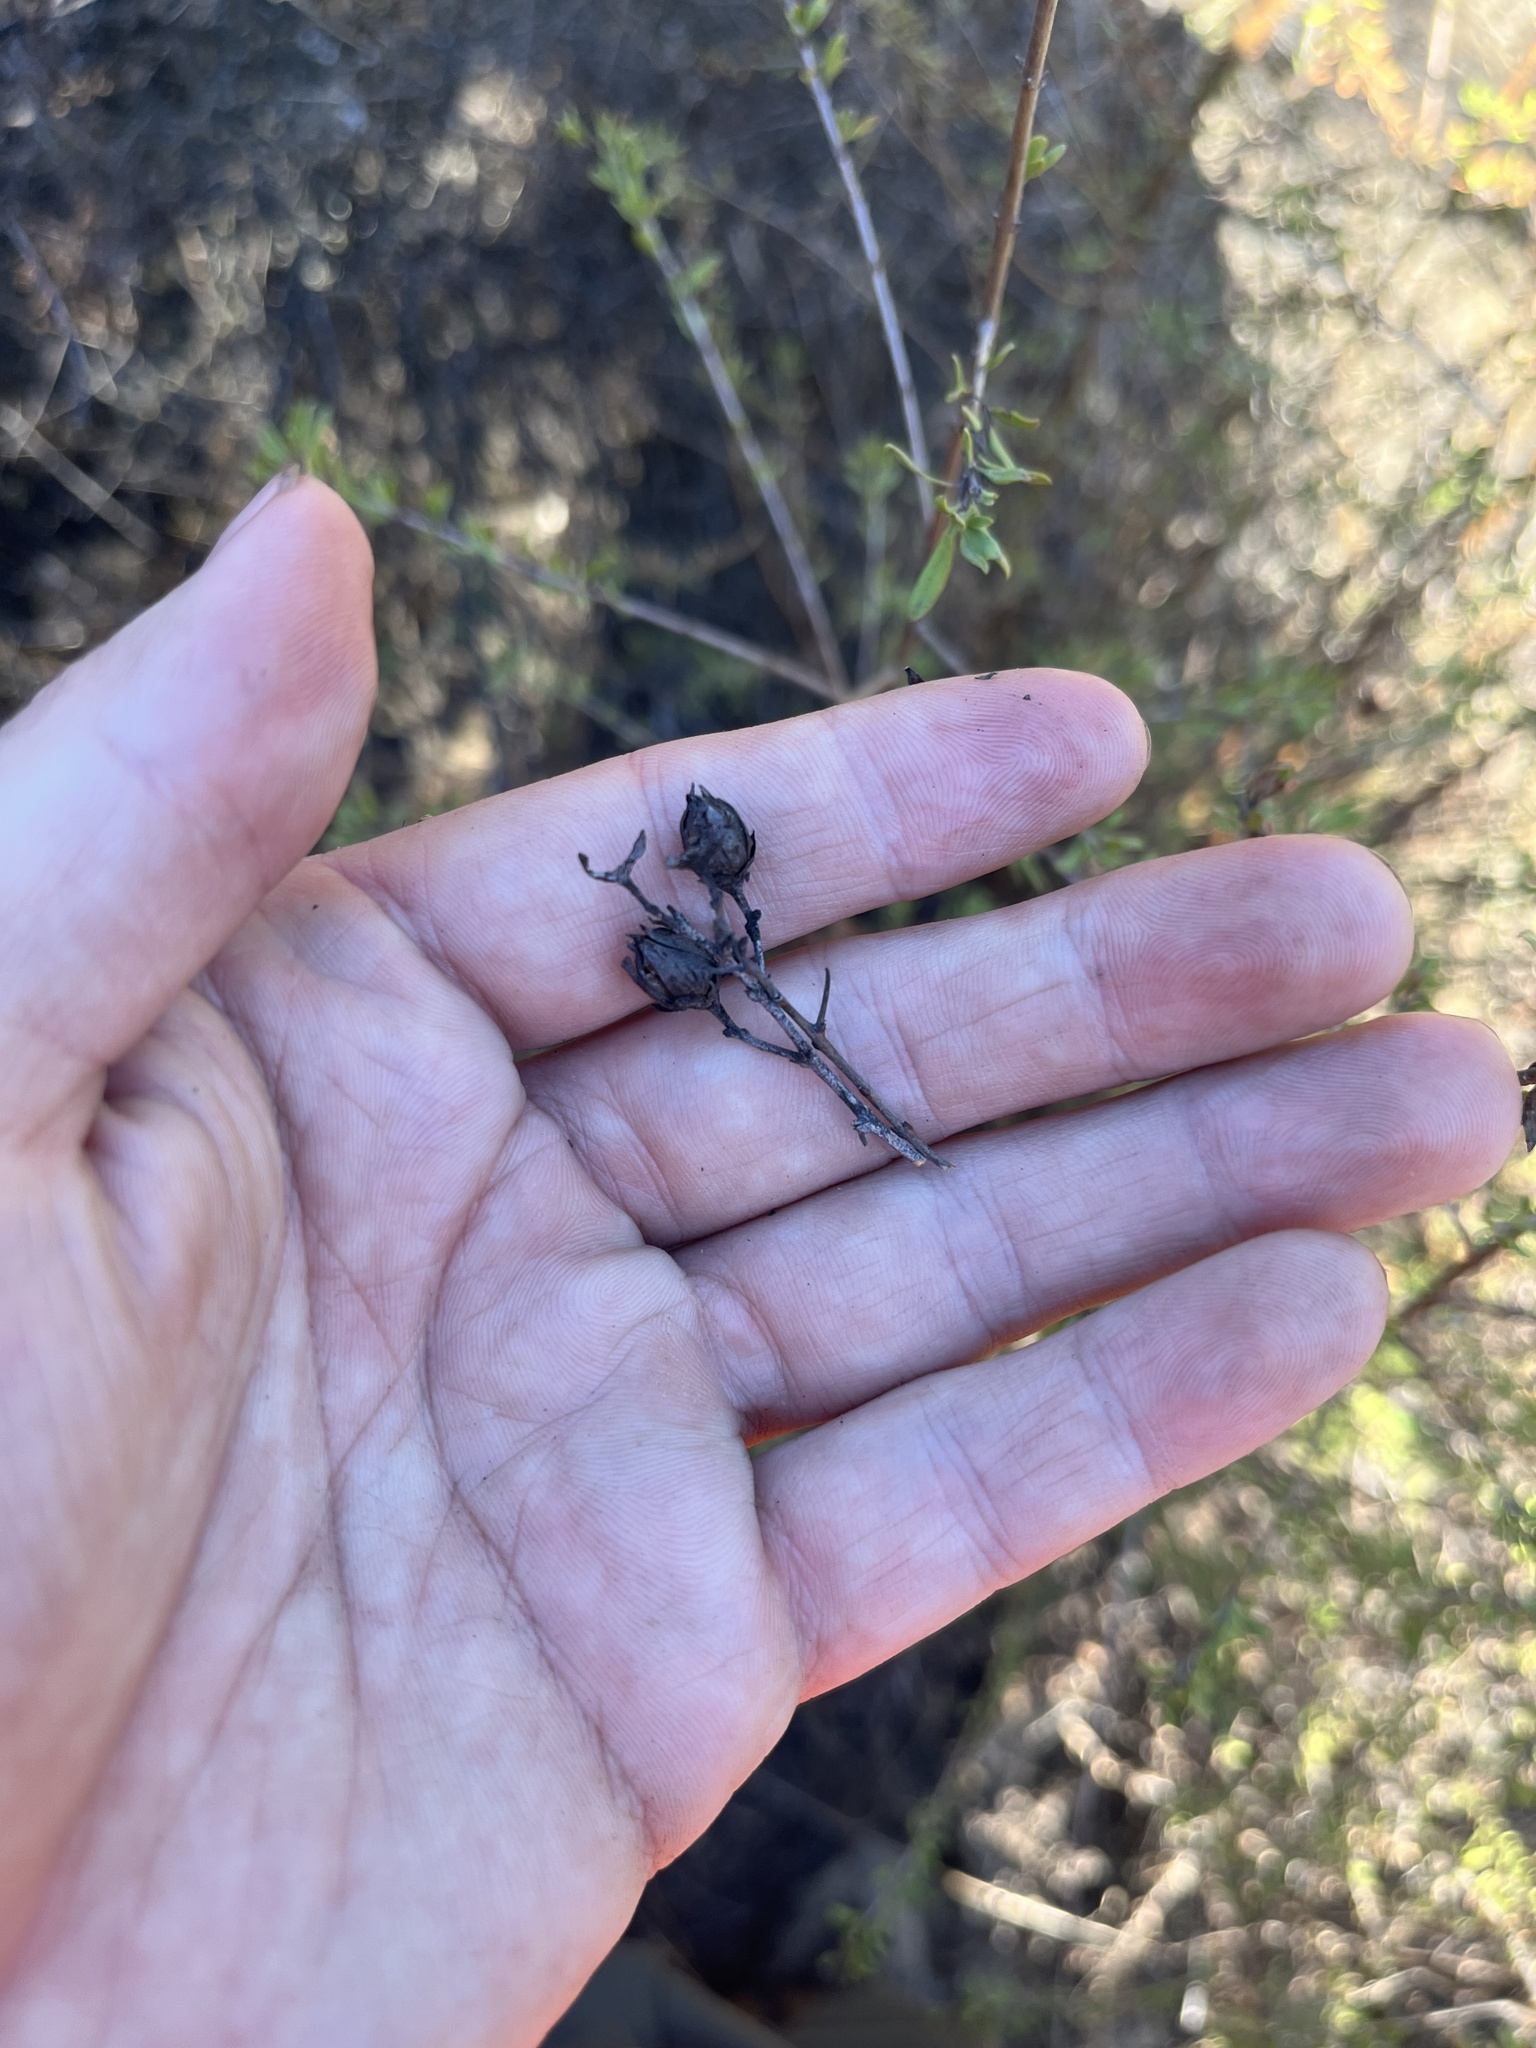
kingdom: Plantae
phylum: Tracheophyta
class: Magnoliopsida
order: Lamiales
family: Plantaginaceae
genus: Keckiella
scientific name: Keckiella antirrhinoides
